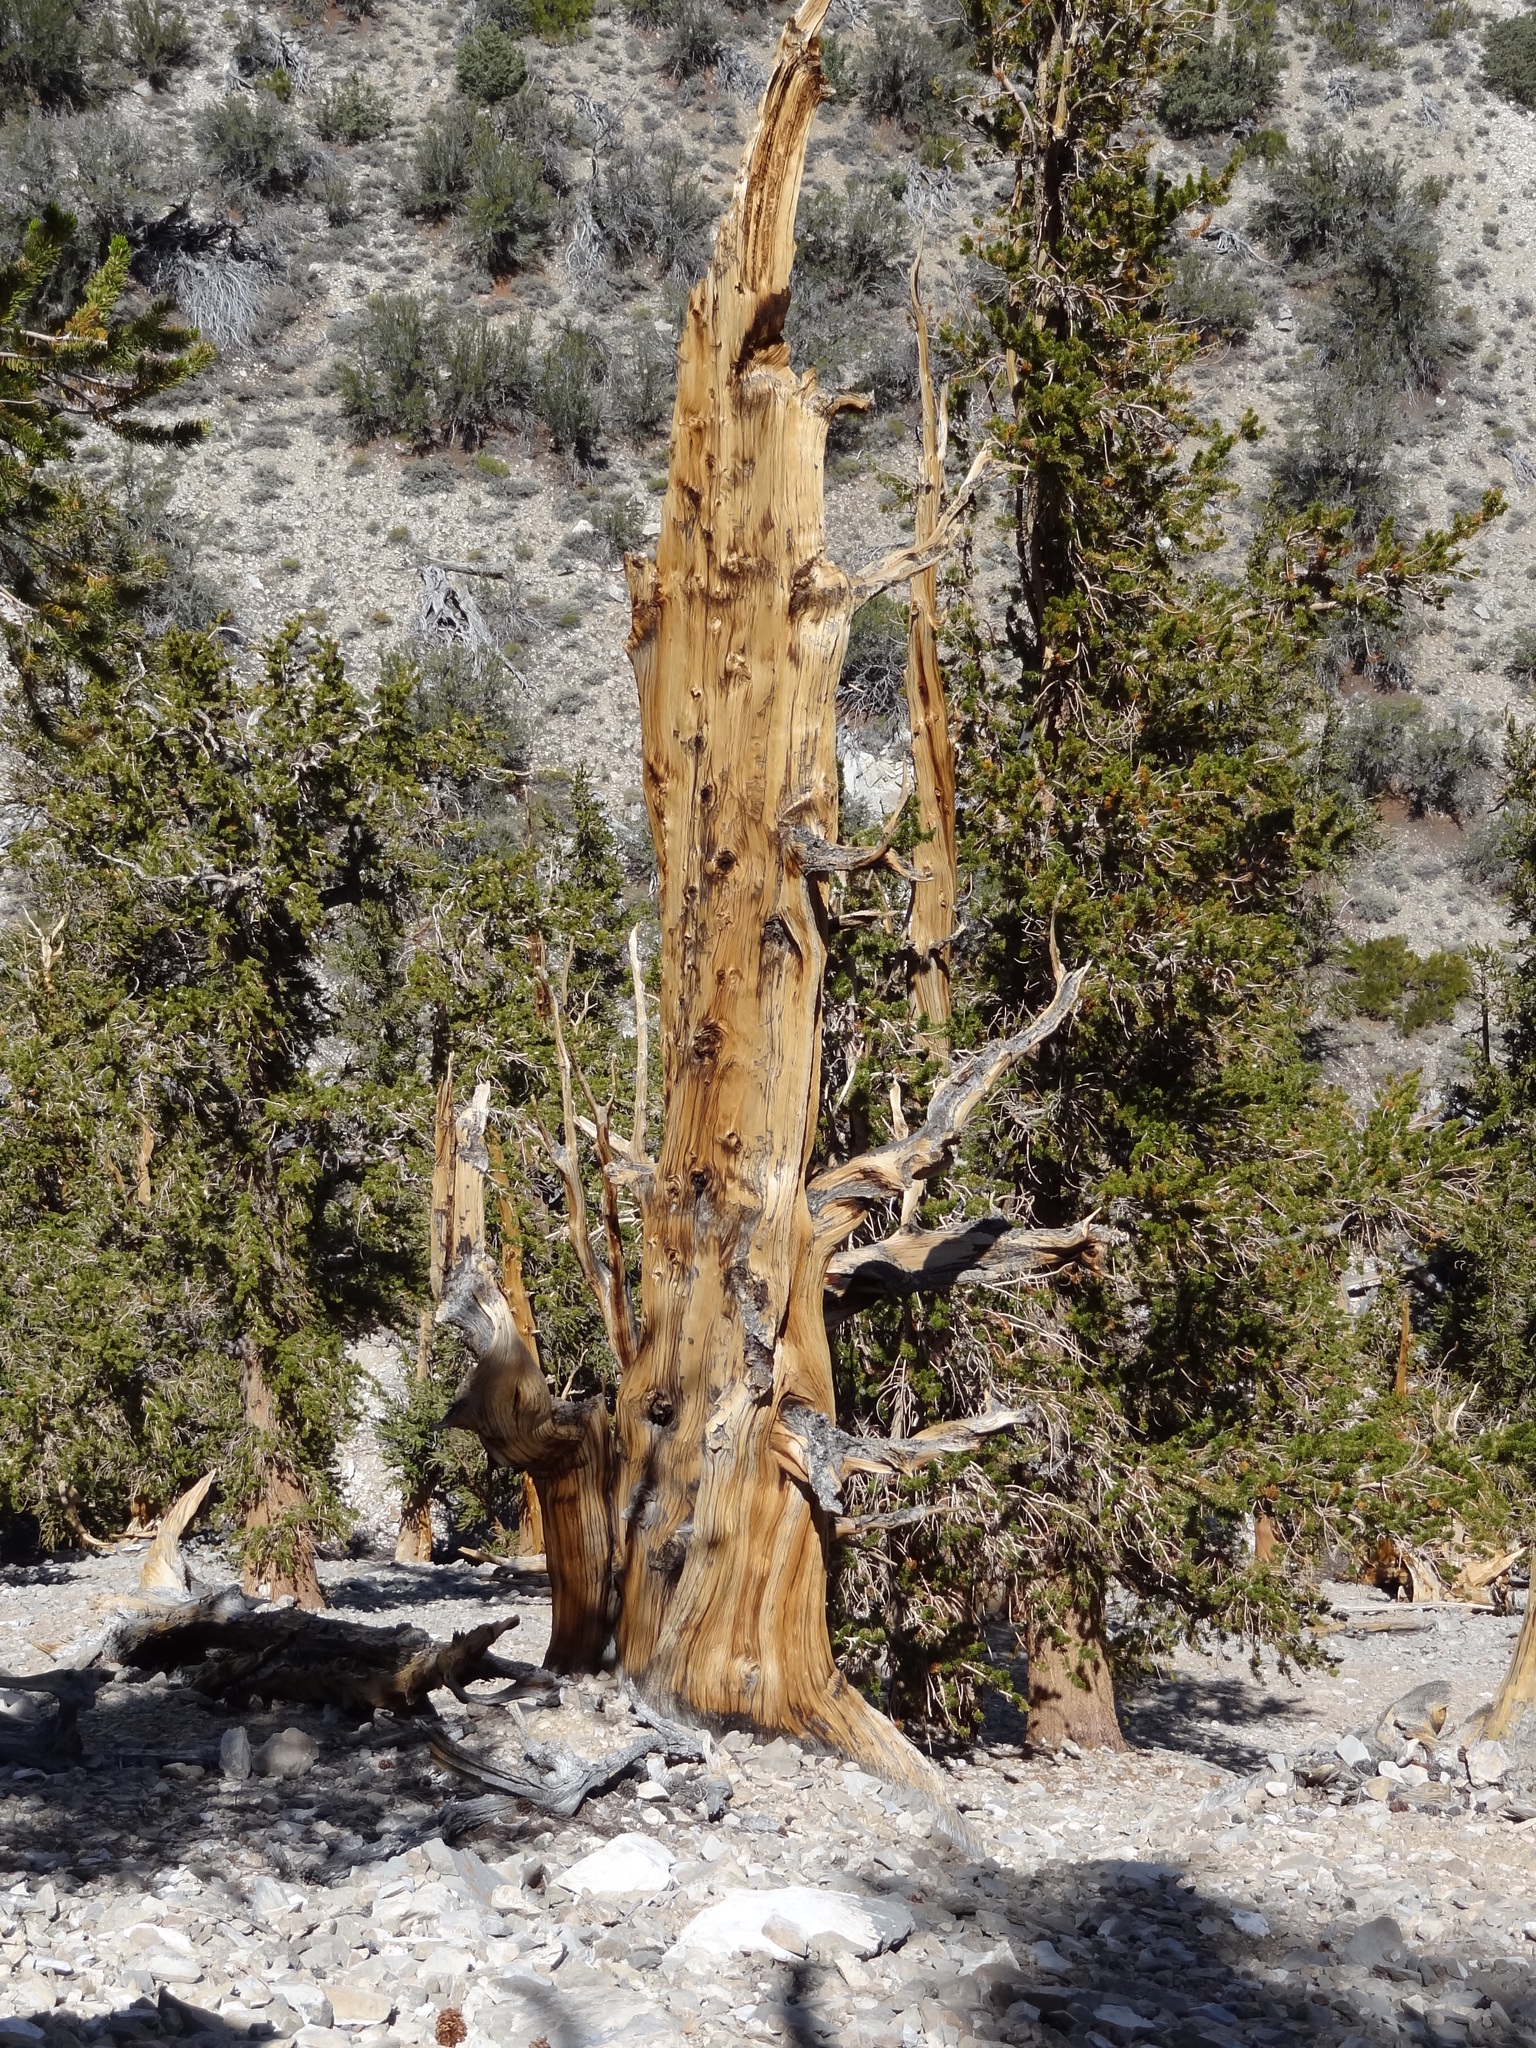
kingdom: Plantae
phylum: Tracheophyta
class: Pinopsida
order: Pinales
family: Pinaceae
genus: Pinus
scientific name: Pinus longaeva
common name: Intermountain bristlecone pine
